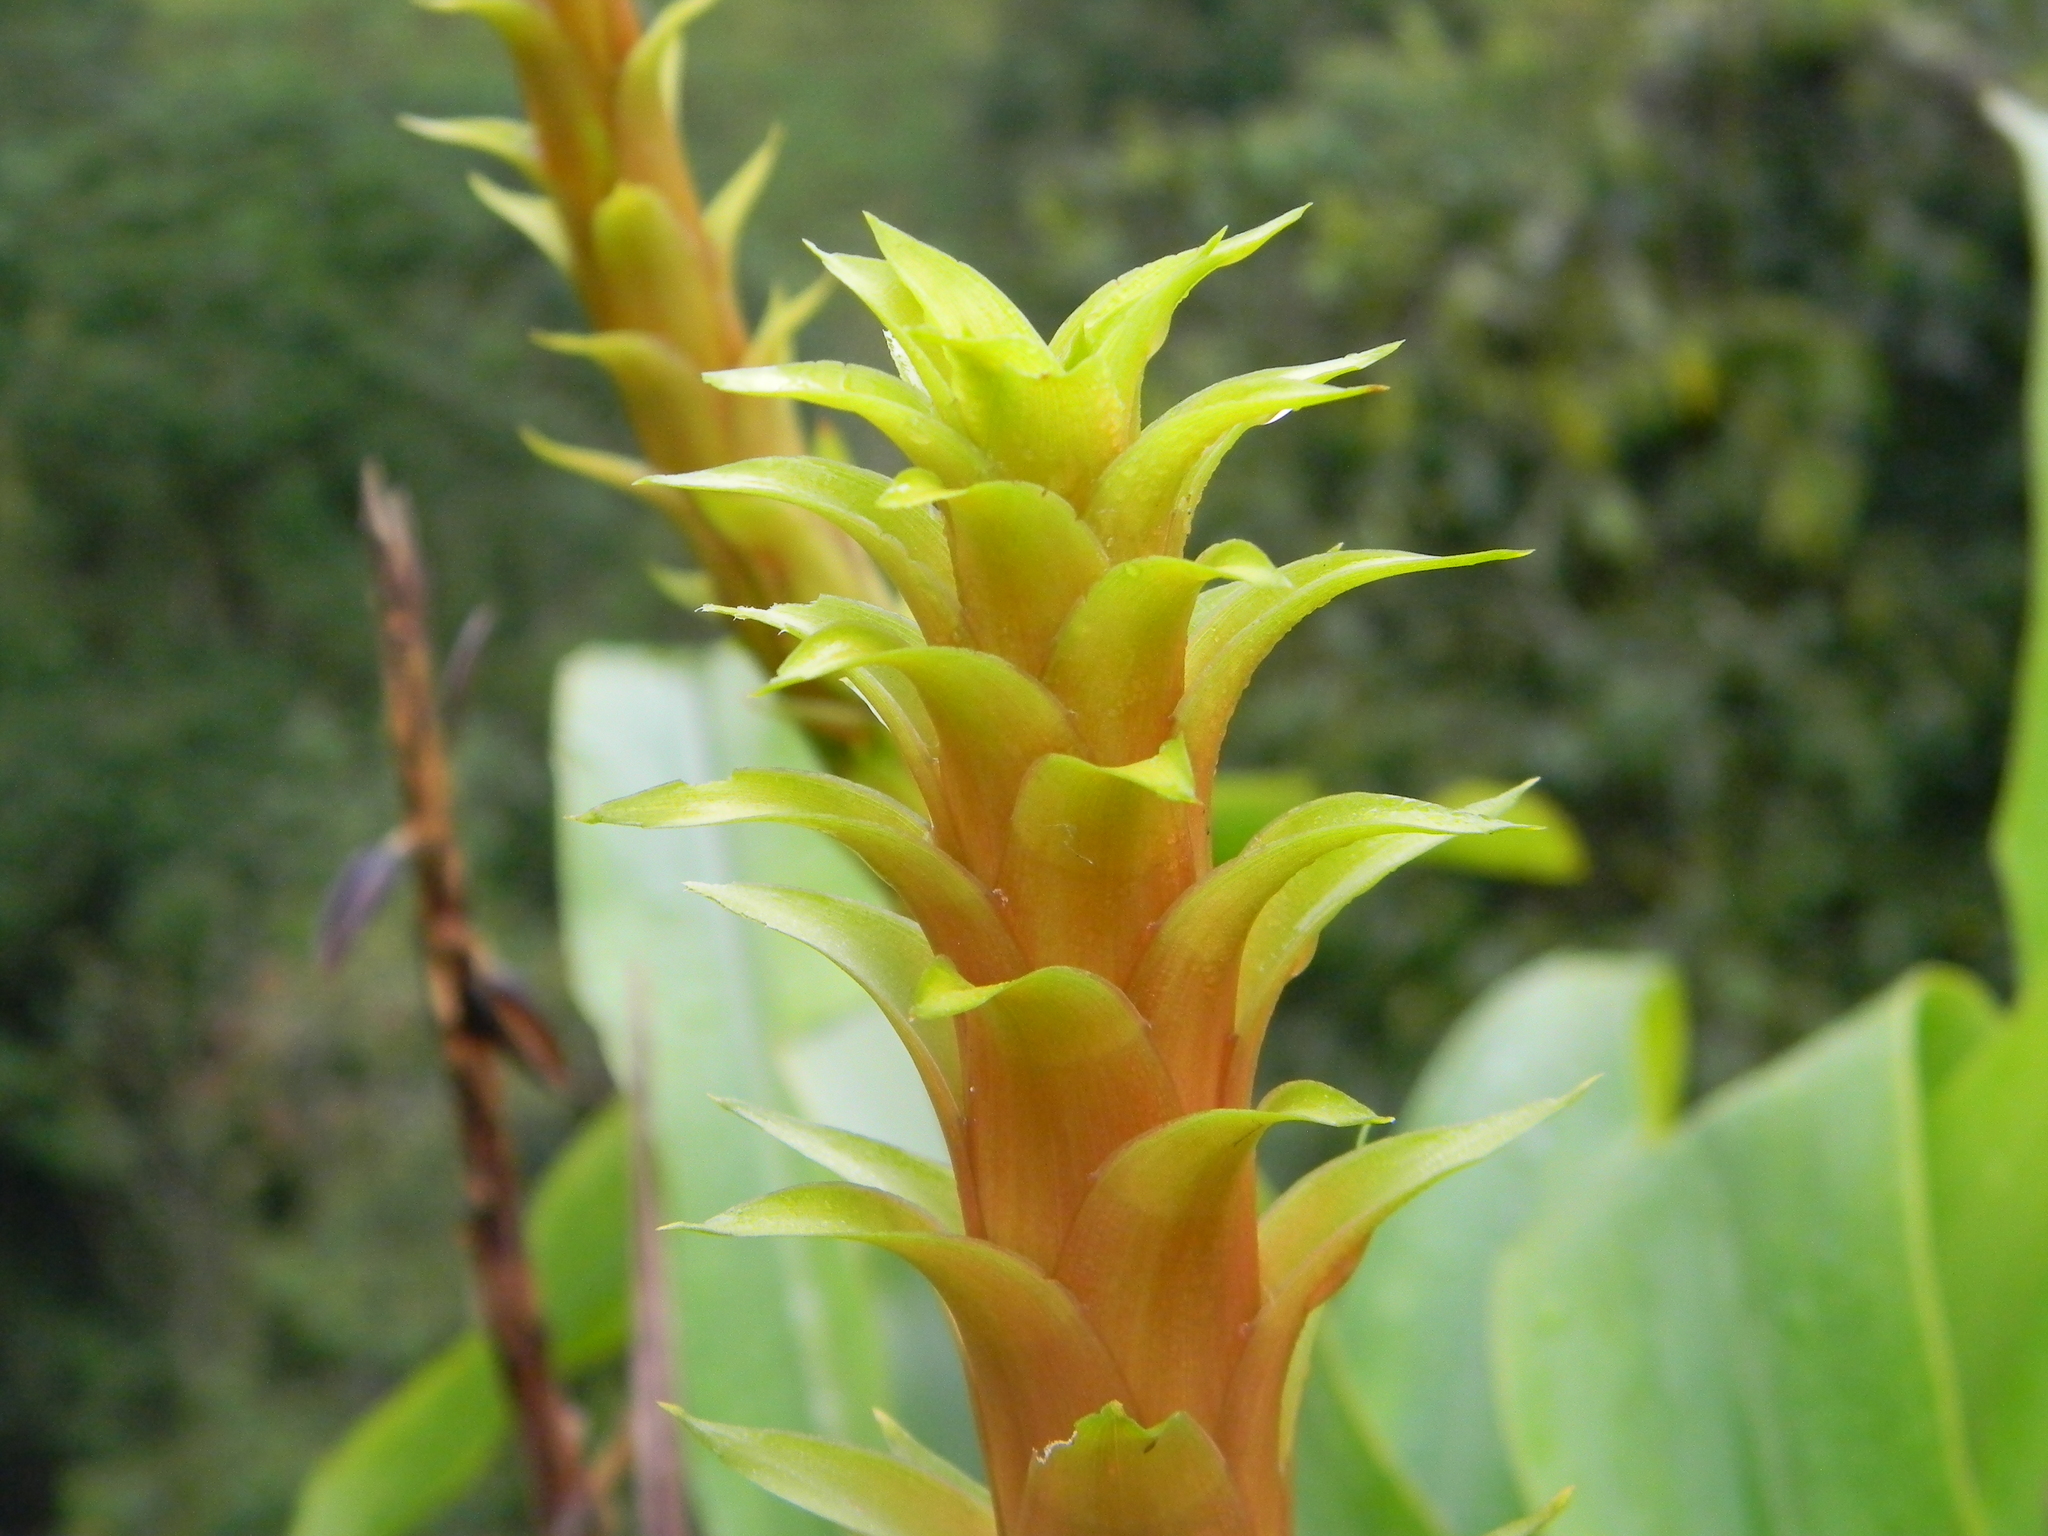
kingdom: Plantae
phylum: Tracheophyta
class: Liliopsida
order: Poales
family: Bromeliaceae
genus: Pitcairnia
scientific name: Pitcairnia squarrosa
